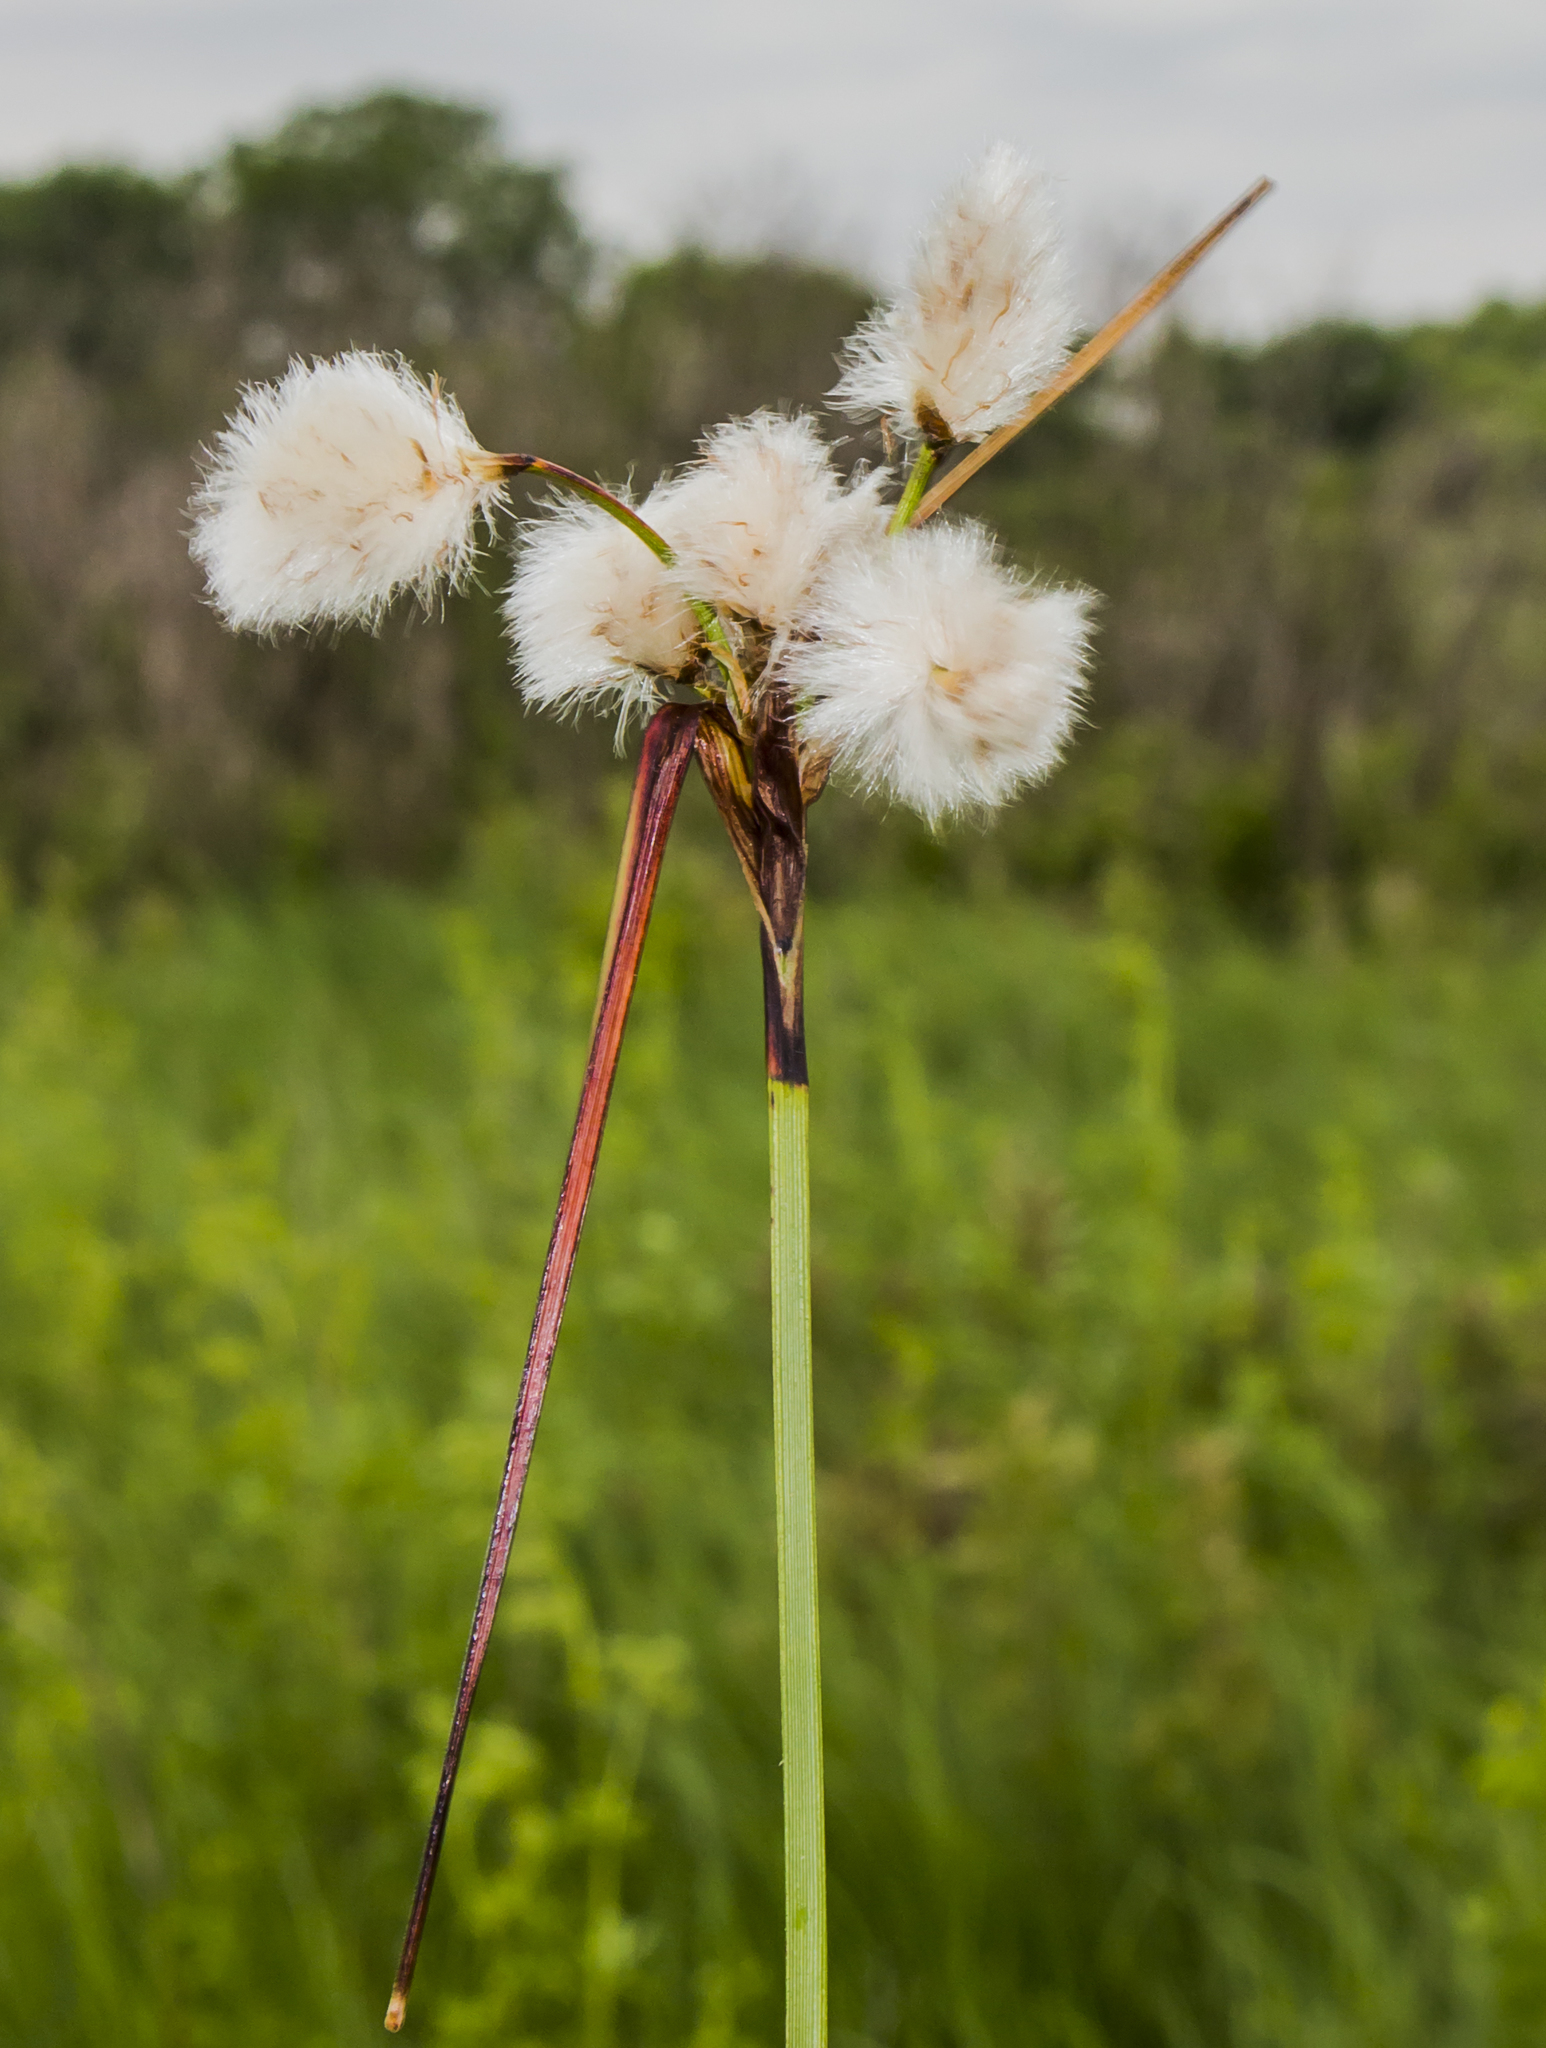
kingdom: Plantae
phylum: Tracheophyta
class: Liliopsida
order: Poales
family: Cyperaceae
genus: Eriophorum
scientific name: Eriophorum angustifolium
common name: Common cottongrass
